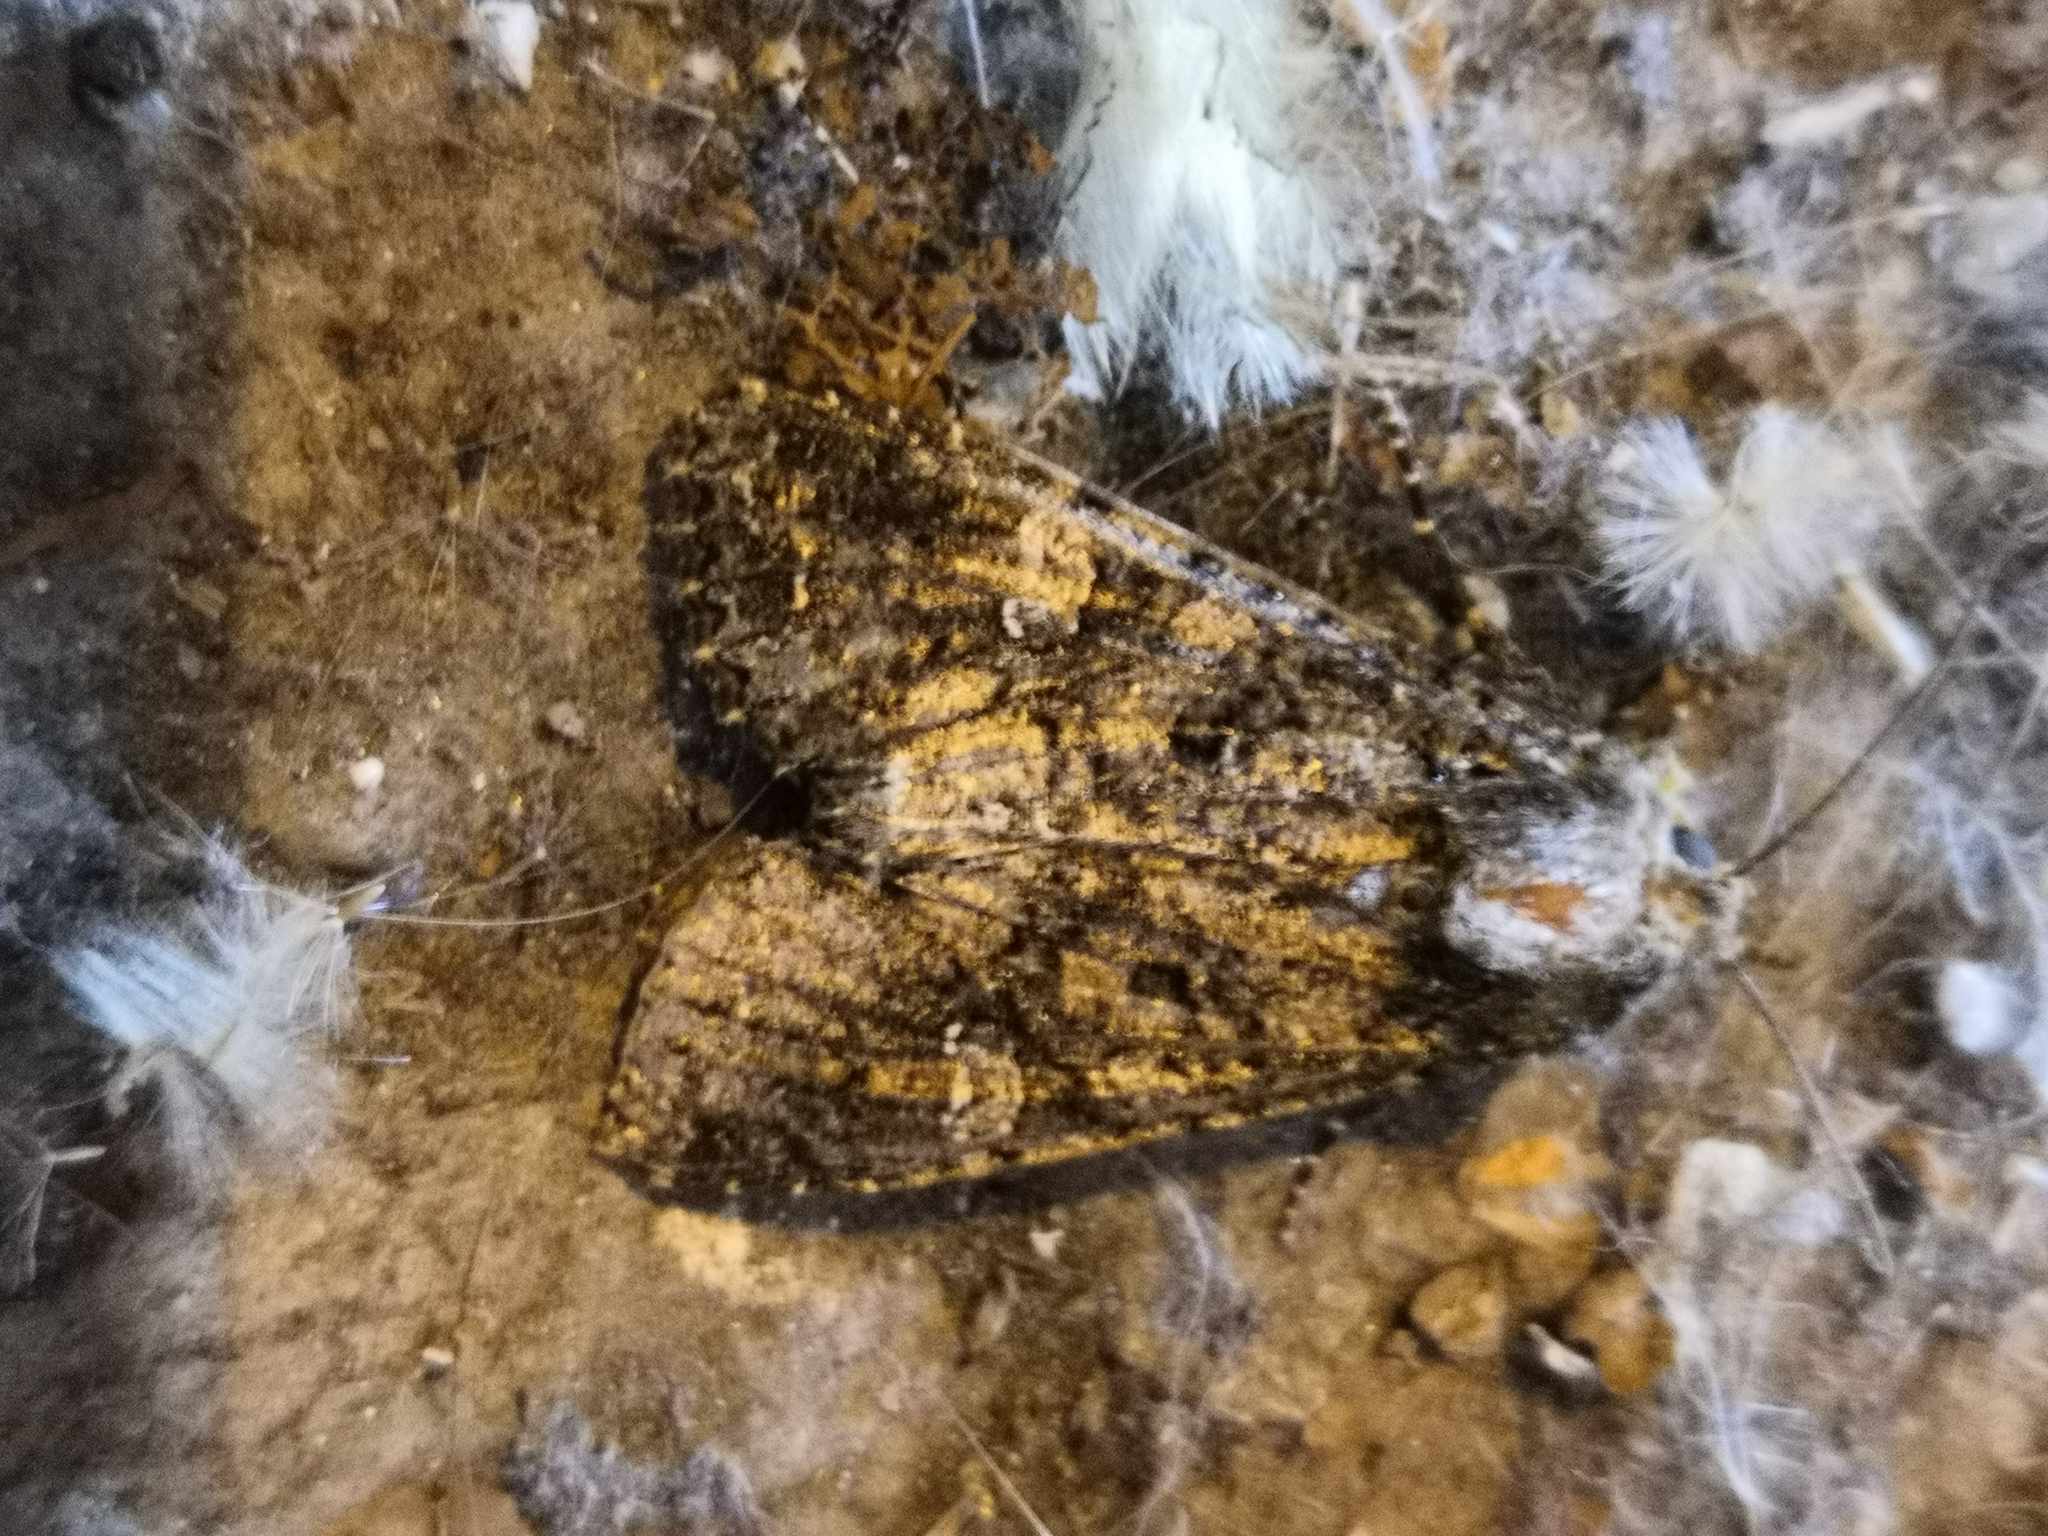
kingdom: Animalia
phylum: Arthropoda
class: Insecta
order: Lepidoptera
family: Noctuidae
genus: Mamestra
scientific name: Mamestra brassicae
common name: Cabbage moth
